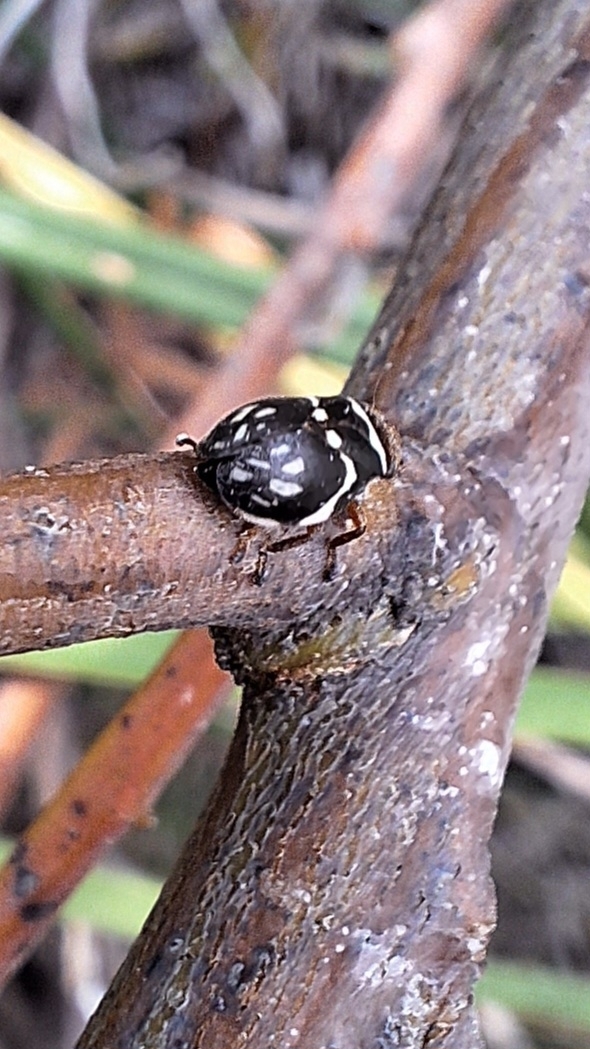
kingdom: Animalia
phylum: Arthropoda
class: Insecta
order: Hemiptera
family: Aphrophoridae
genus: Bathyllus
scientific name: Bathyllus albicinctus
